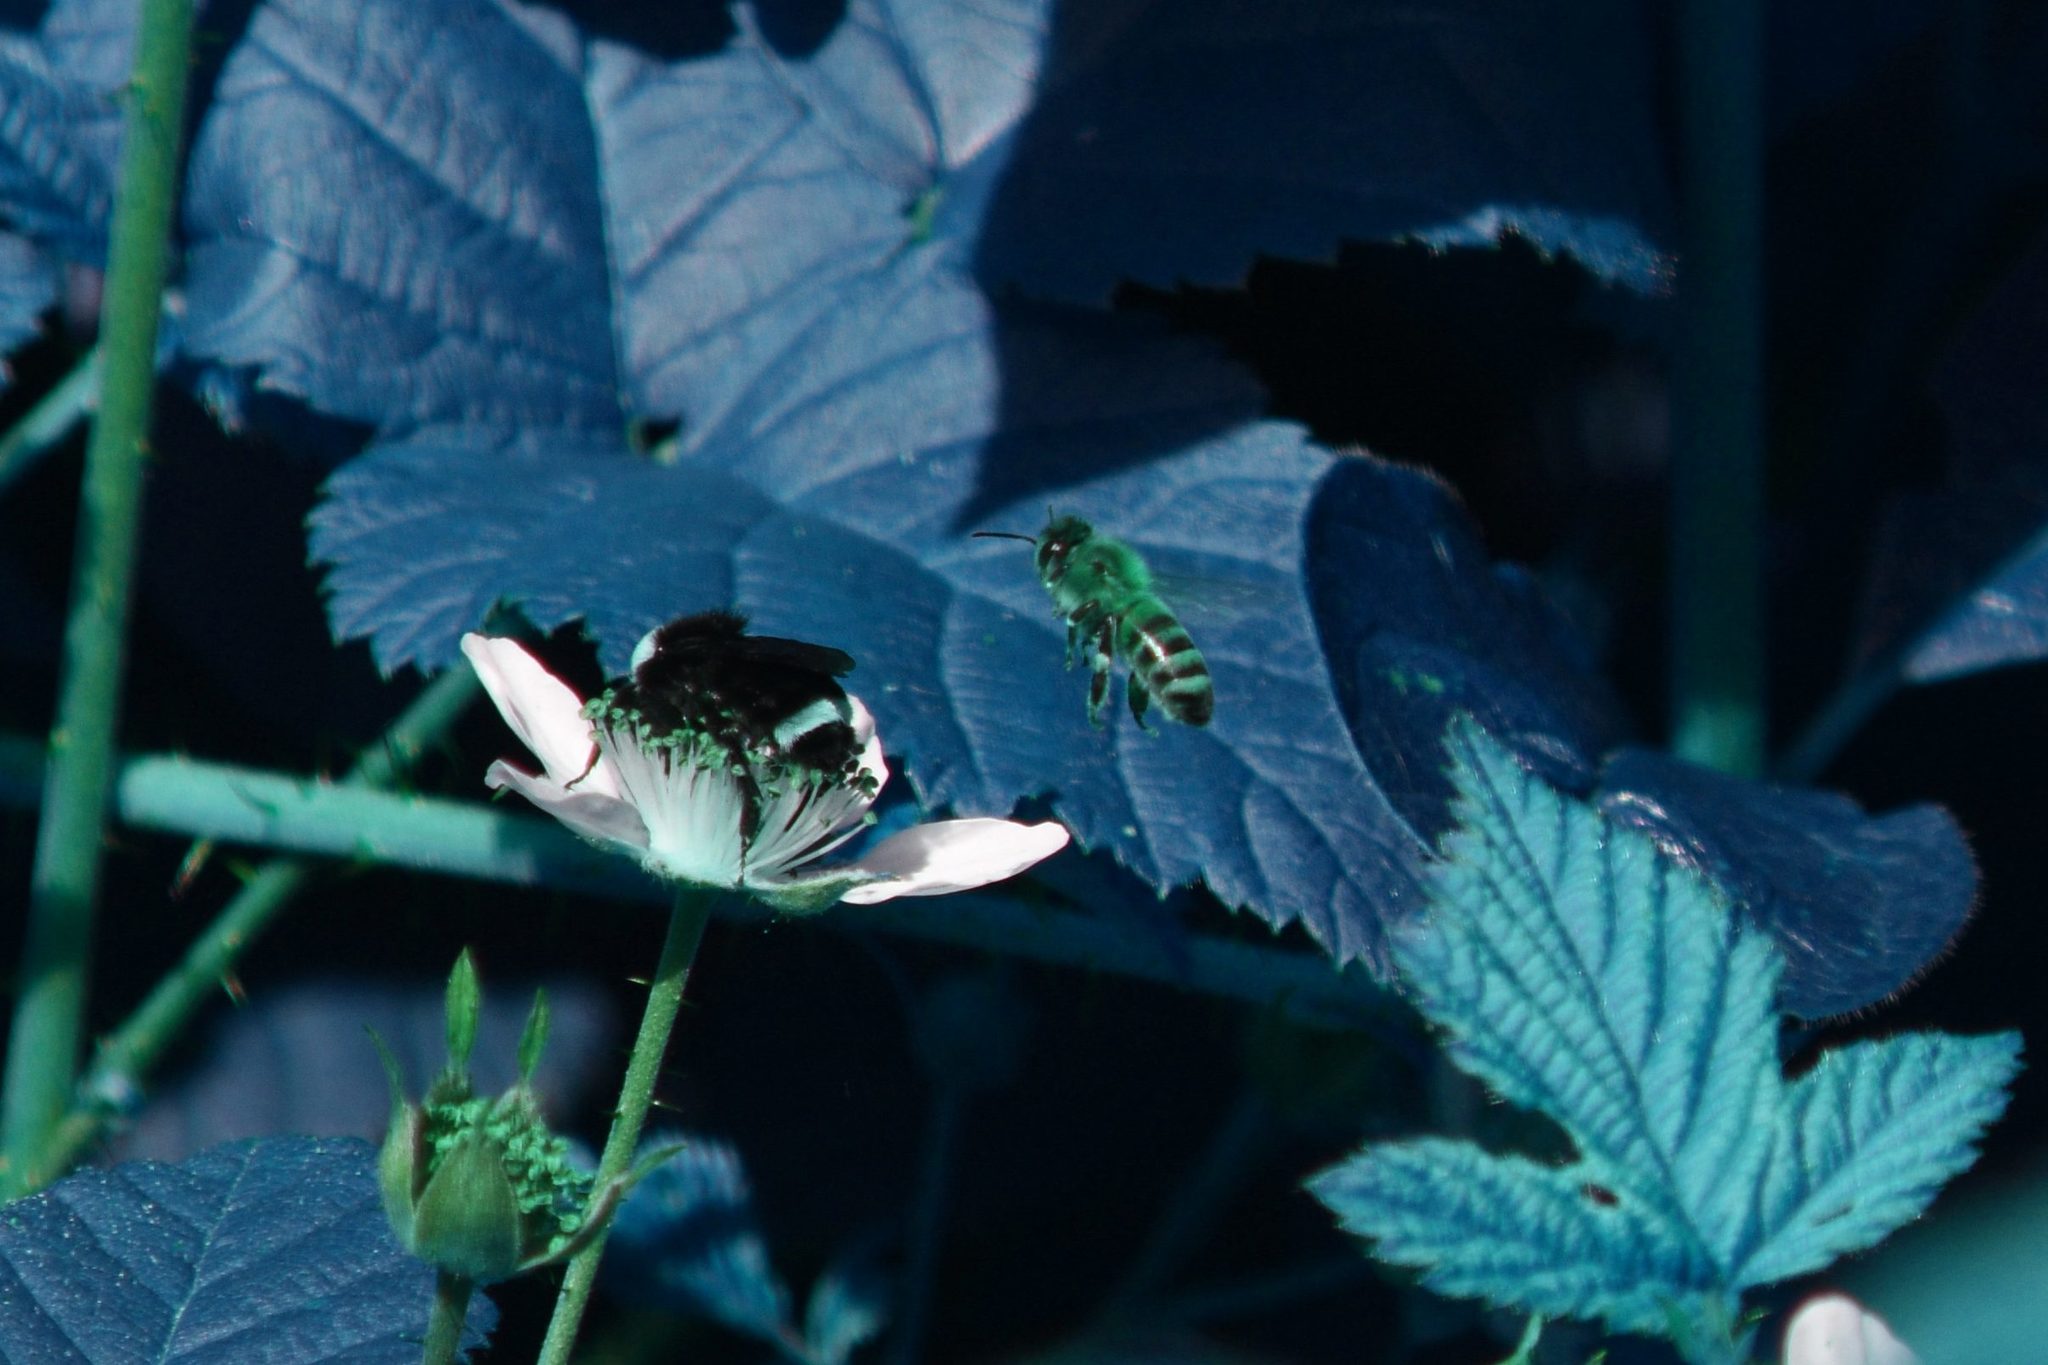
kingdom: Animalia
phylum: Arthropoda
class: Insecta
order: Hymenoptera
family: Apidae
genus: Apis
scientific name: Apis mellifera
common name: Honey bee
